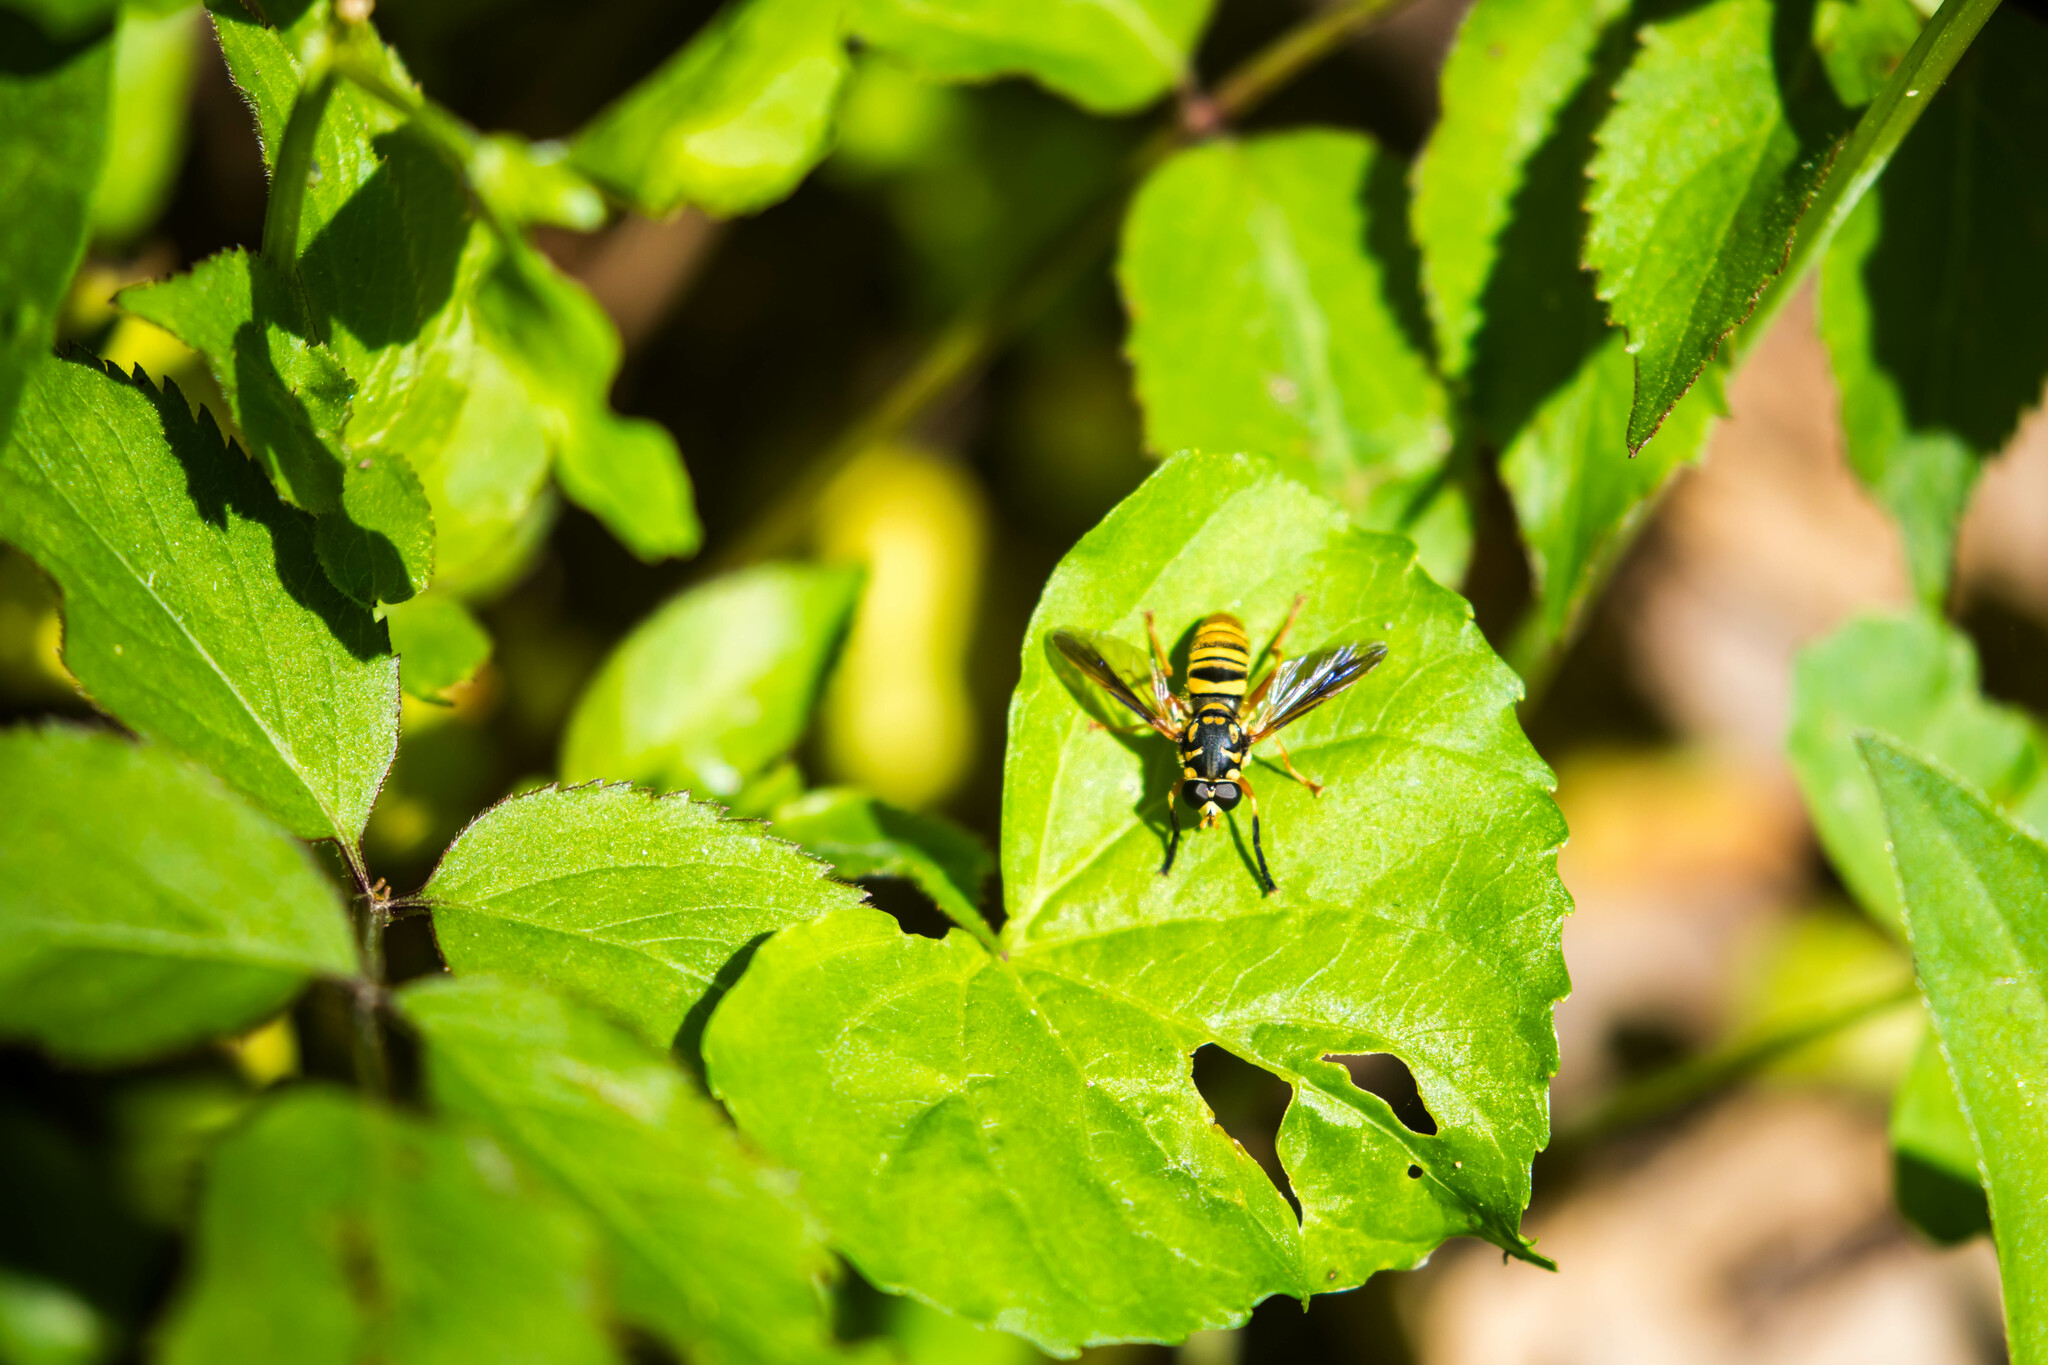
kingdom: Animalia
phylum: Arthropoda
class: Insecta
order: Diptera
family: Syrphidae
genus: Temnostoma
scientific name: Temnostoma daochum
